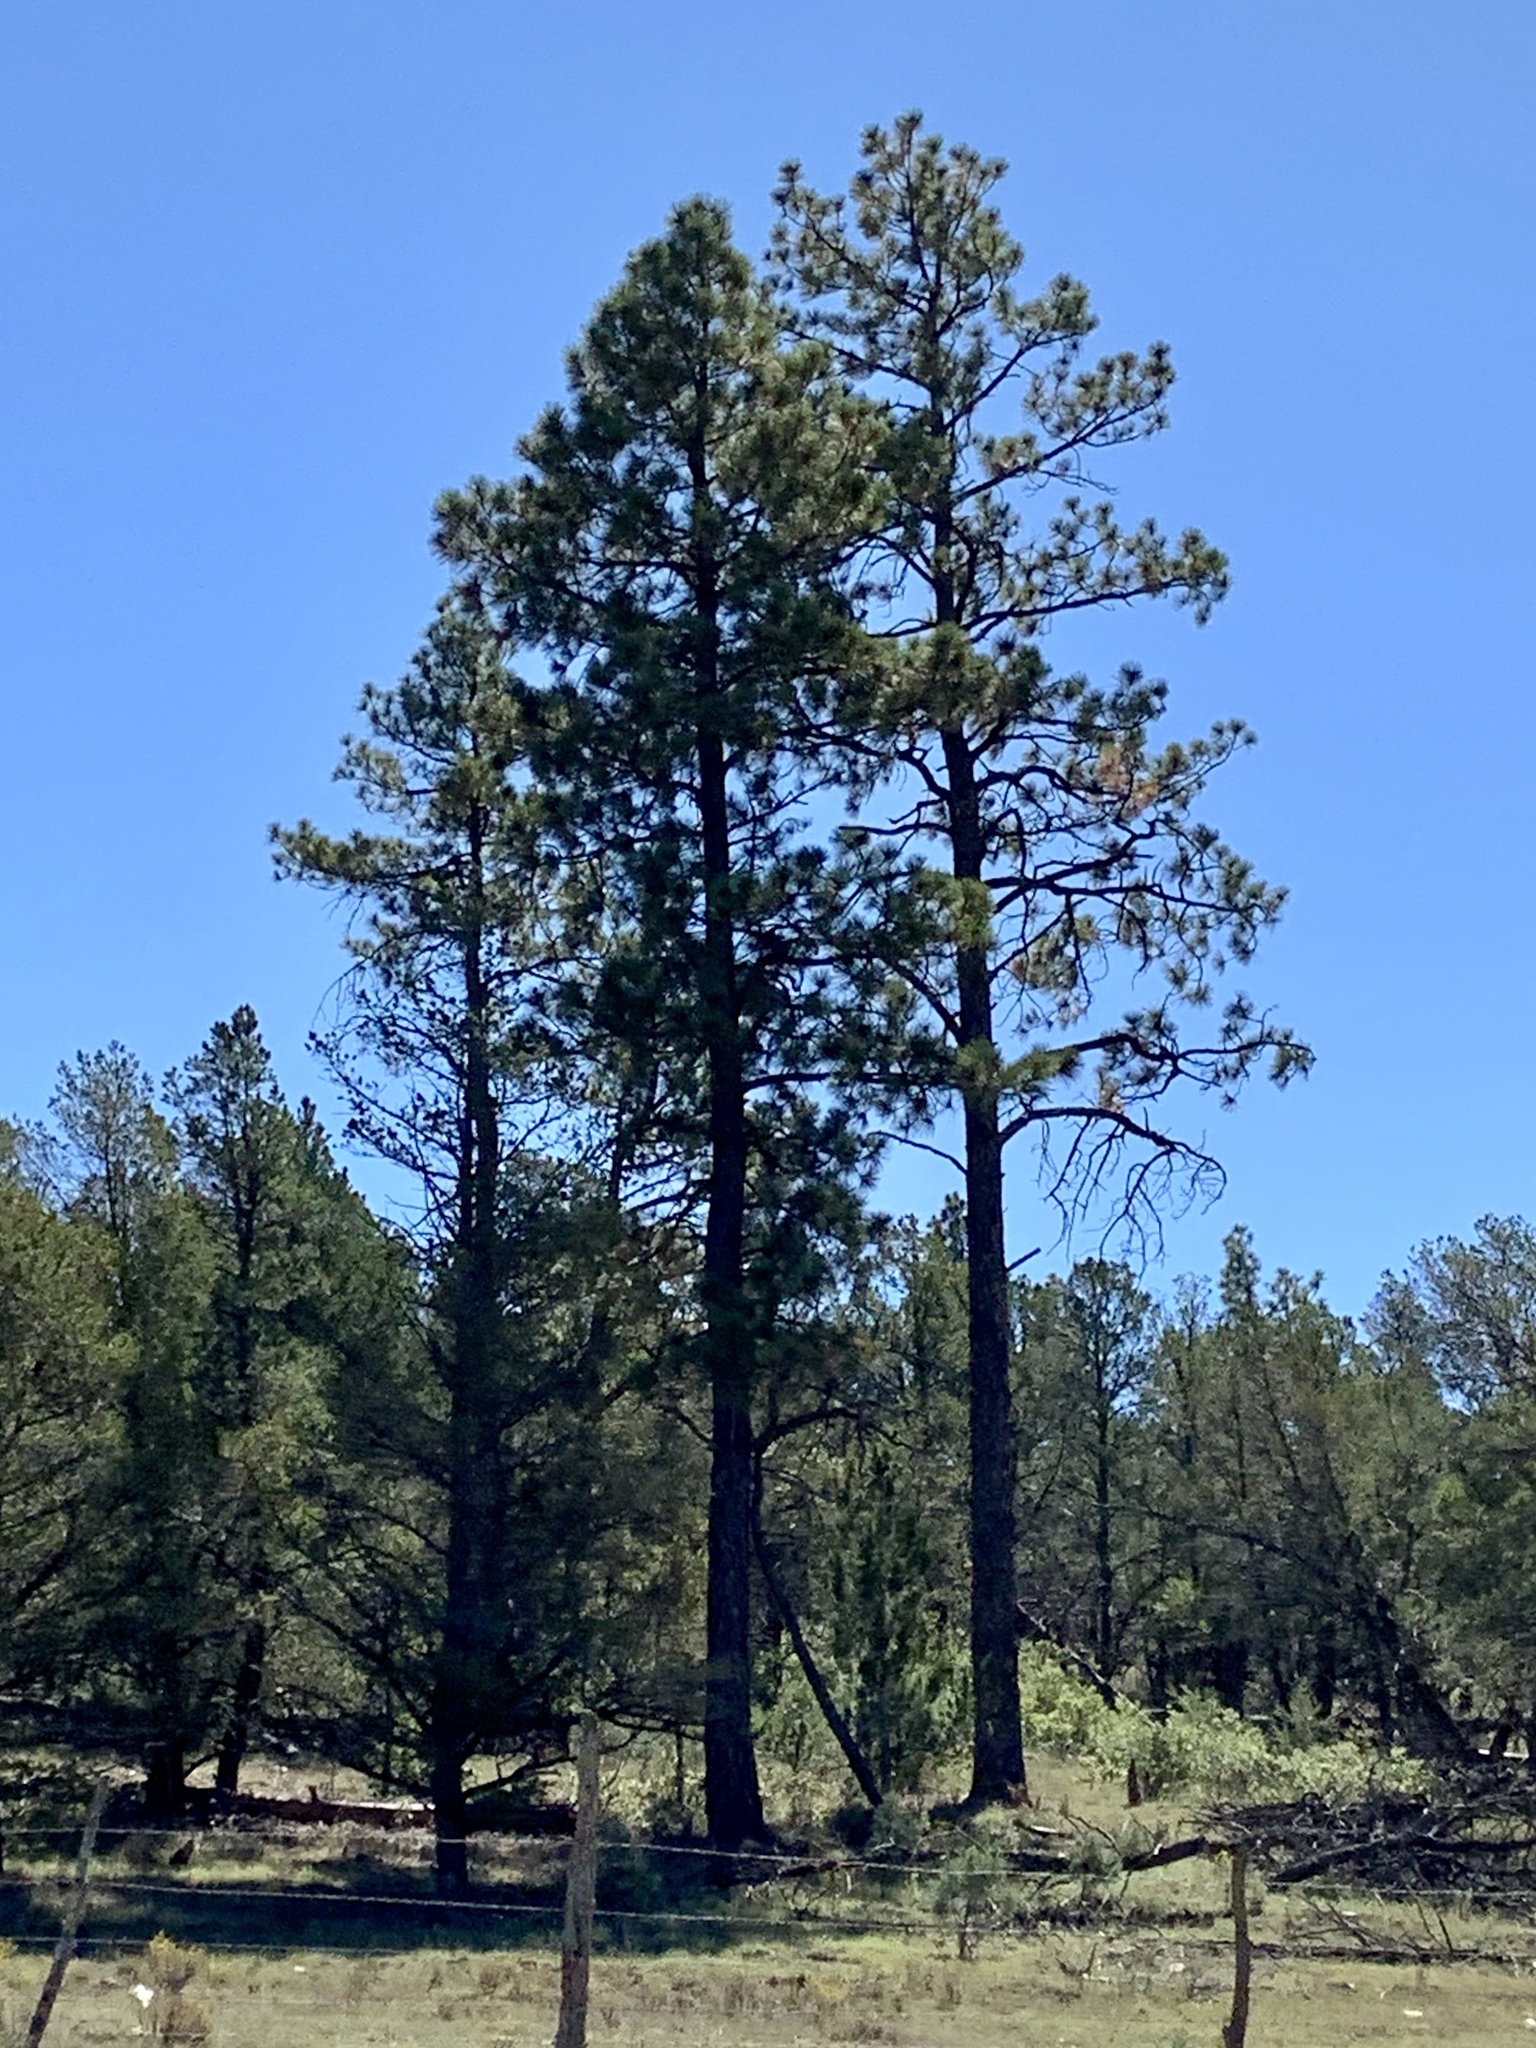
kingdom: Plantae
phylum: Tracheophyta
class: Pinopsida
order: Pinales
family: Pinaceae
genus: Pinus
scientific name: Pinus ponderosa
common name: Western yellow-pine
